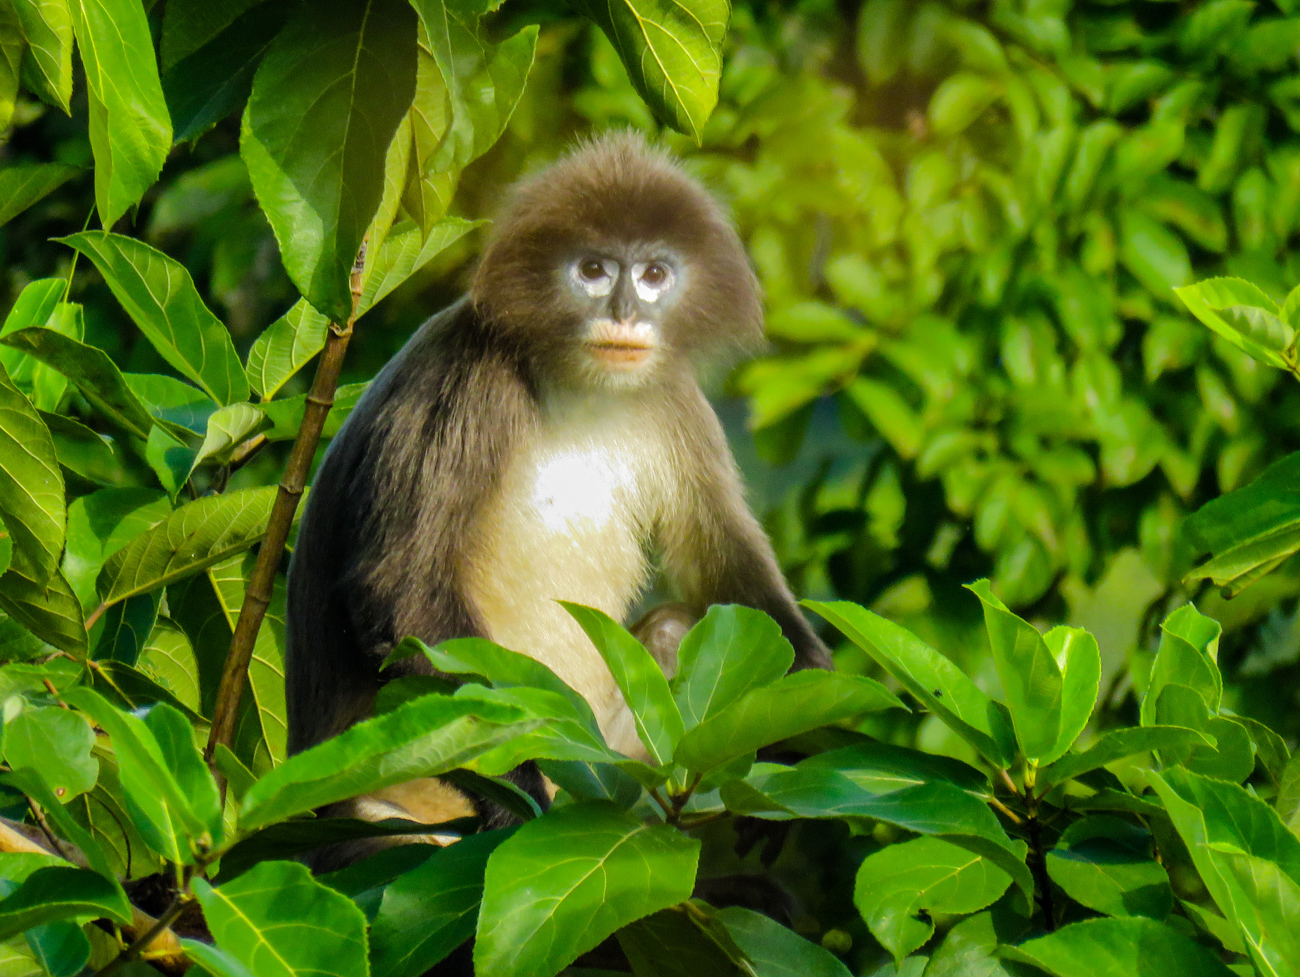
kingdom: Animalia
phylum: Chordata
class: Mammalia
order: Primates
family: Cercopithecidae
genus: Trachypithecus
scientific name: Trachypithecus phayrei
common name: Phayre's leaf monkey
